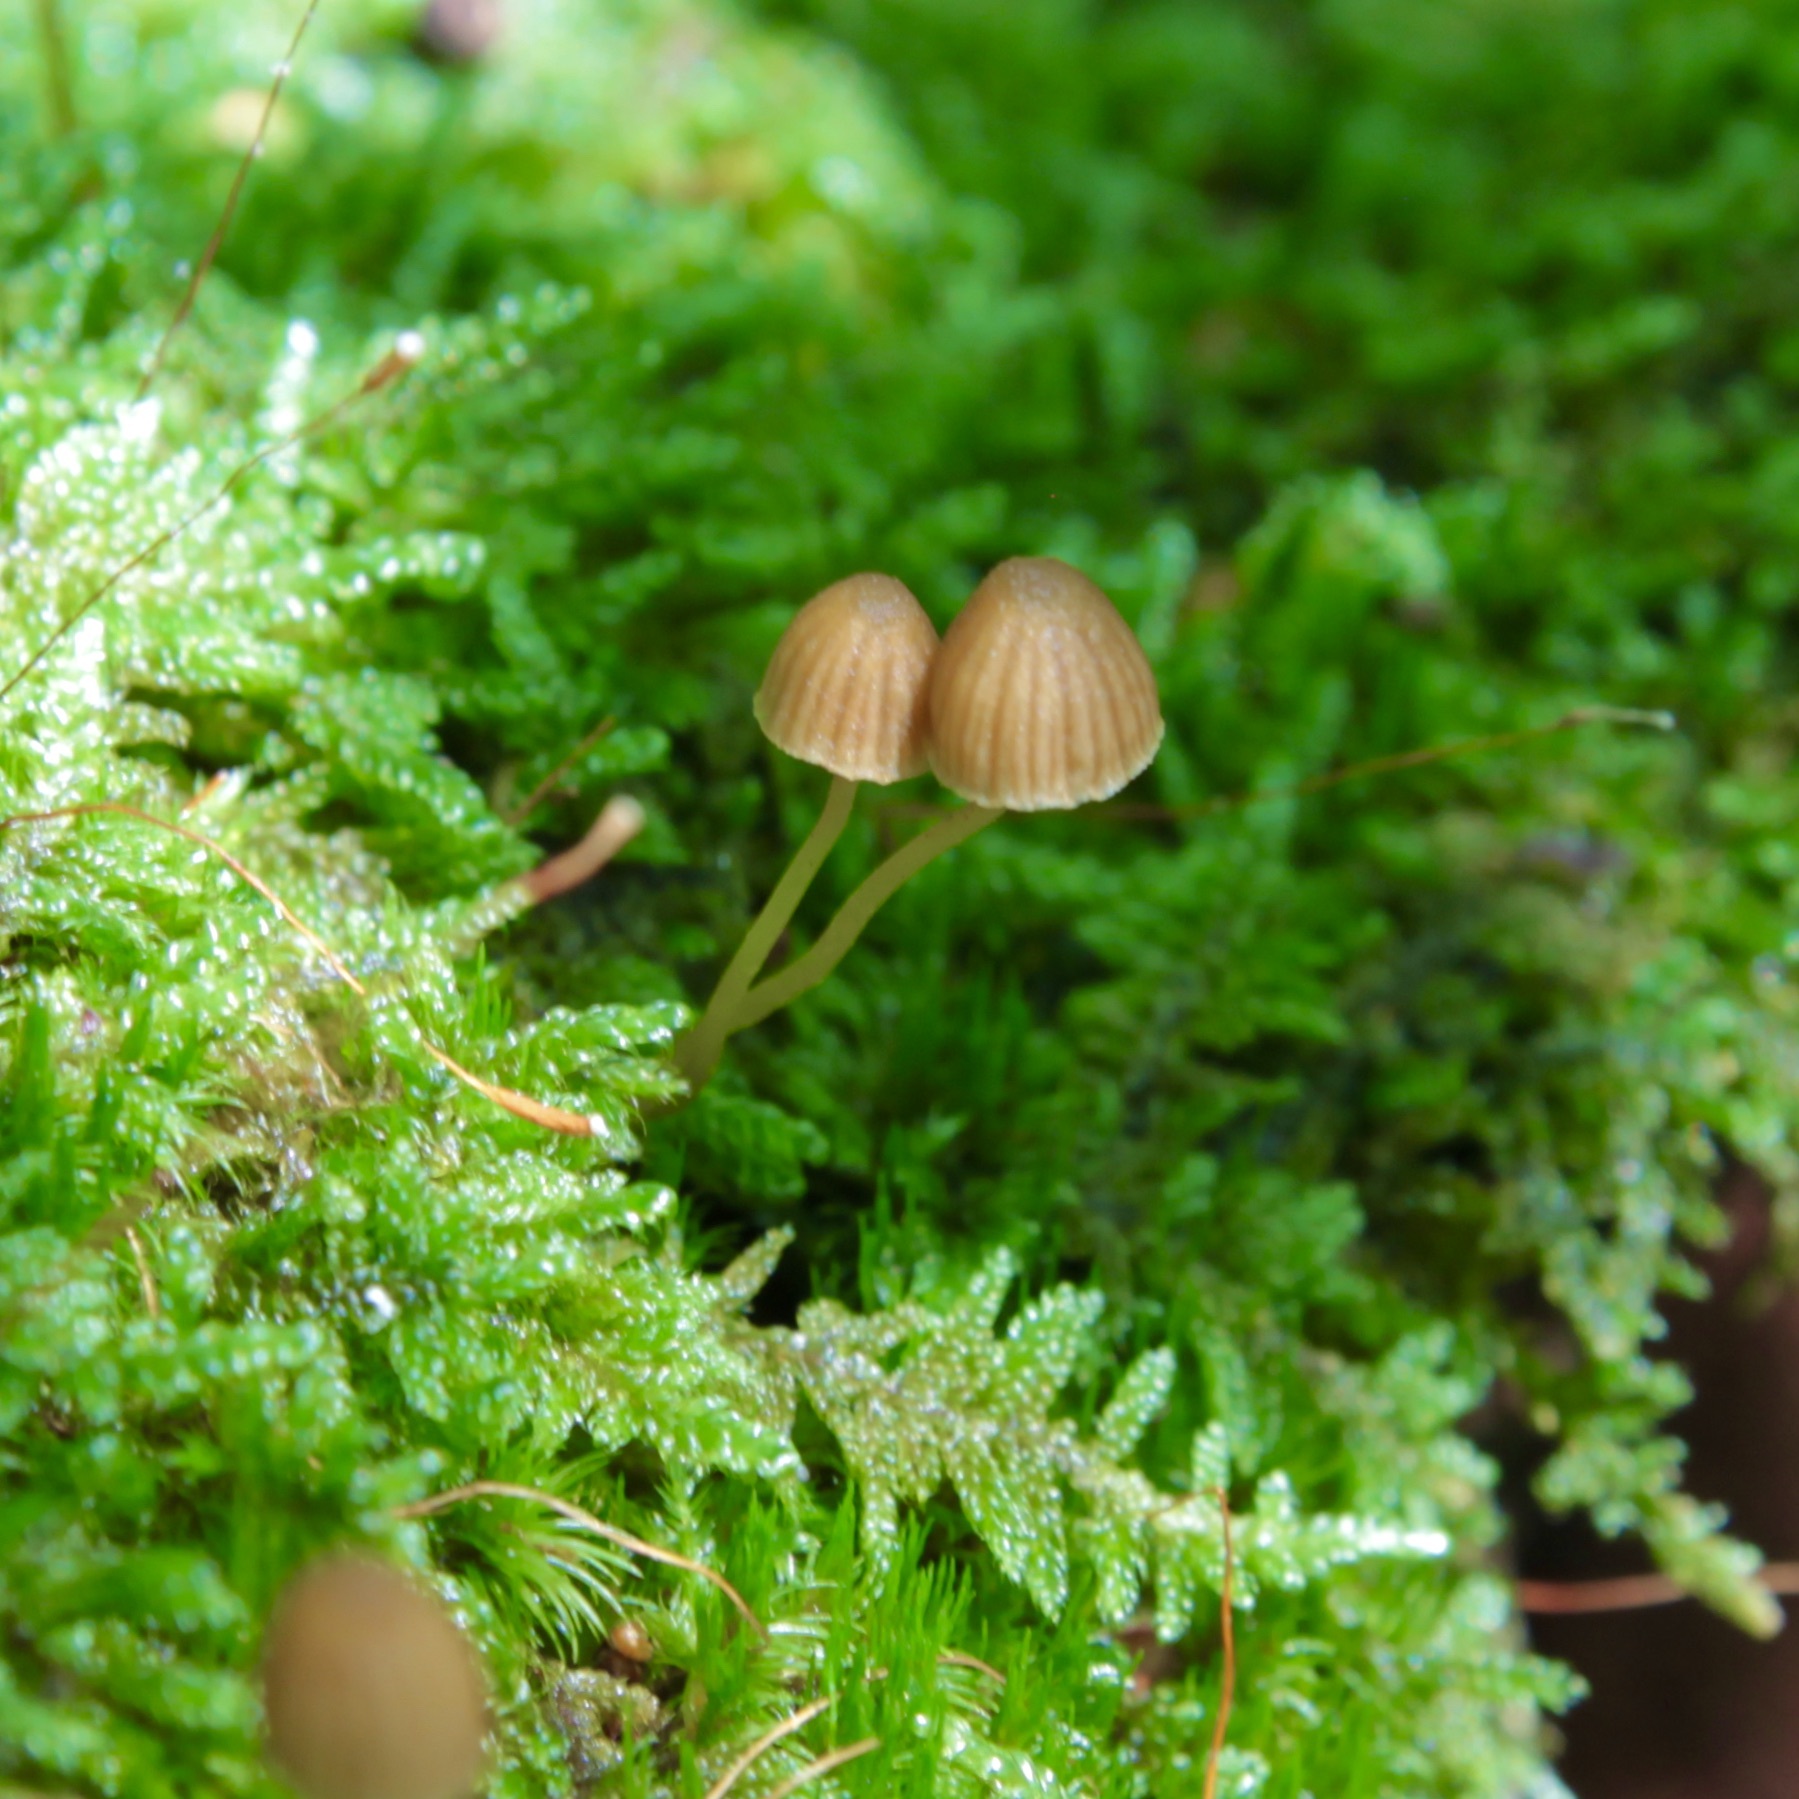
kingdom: Fungi
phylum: Basidiomycota
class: Agaricomycetes
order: Agaricales
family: Hymenogastraceae
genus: Galerina
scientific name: Galerina hypnorum
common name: Moss bell
